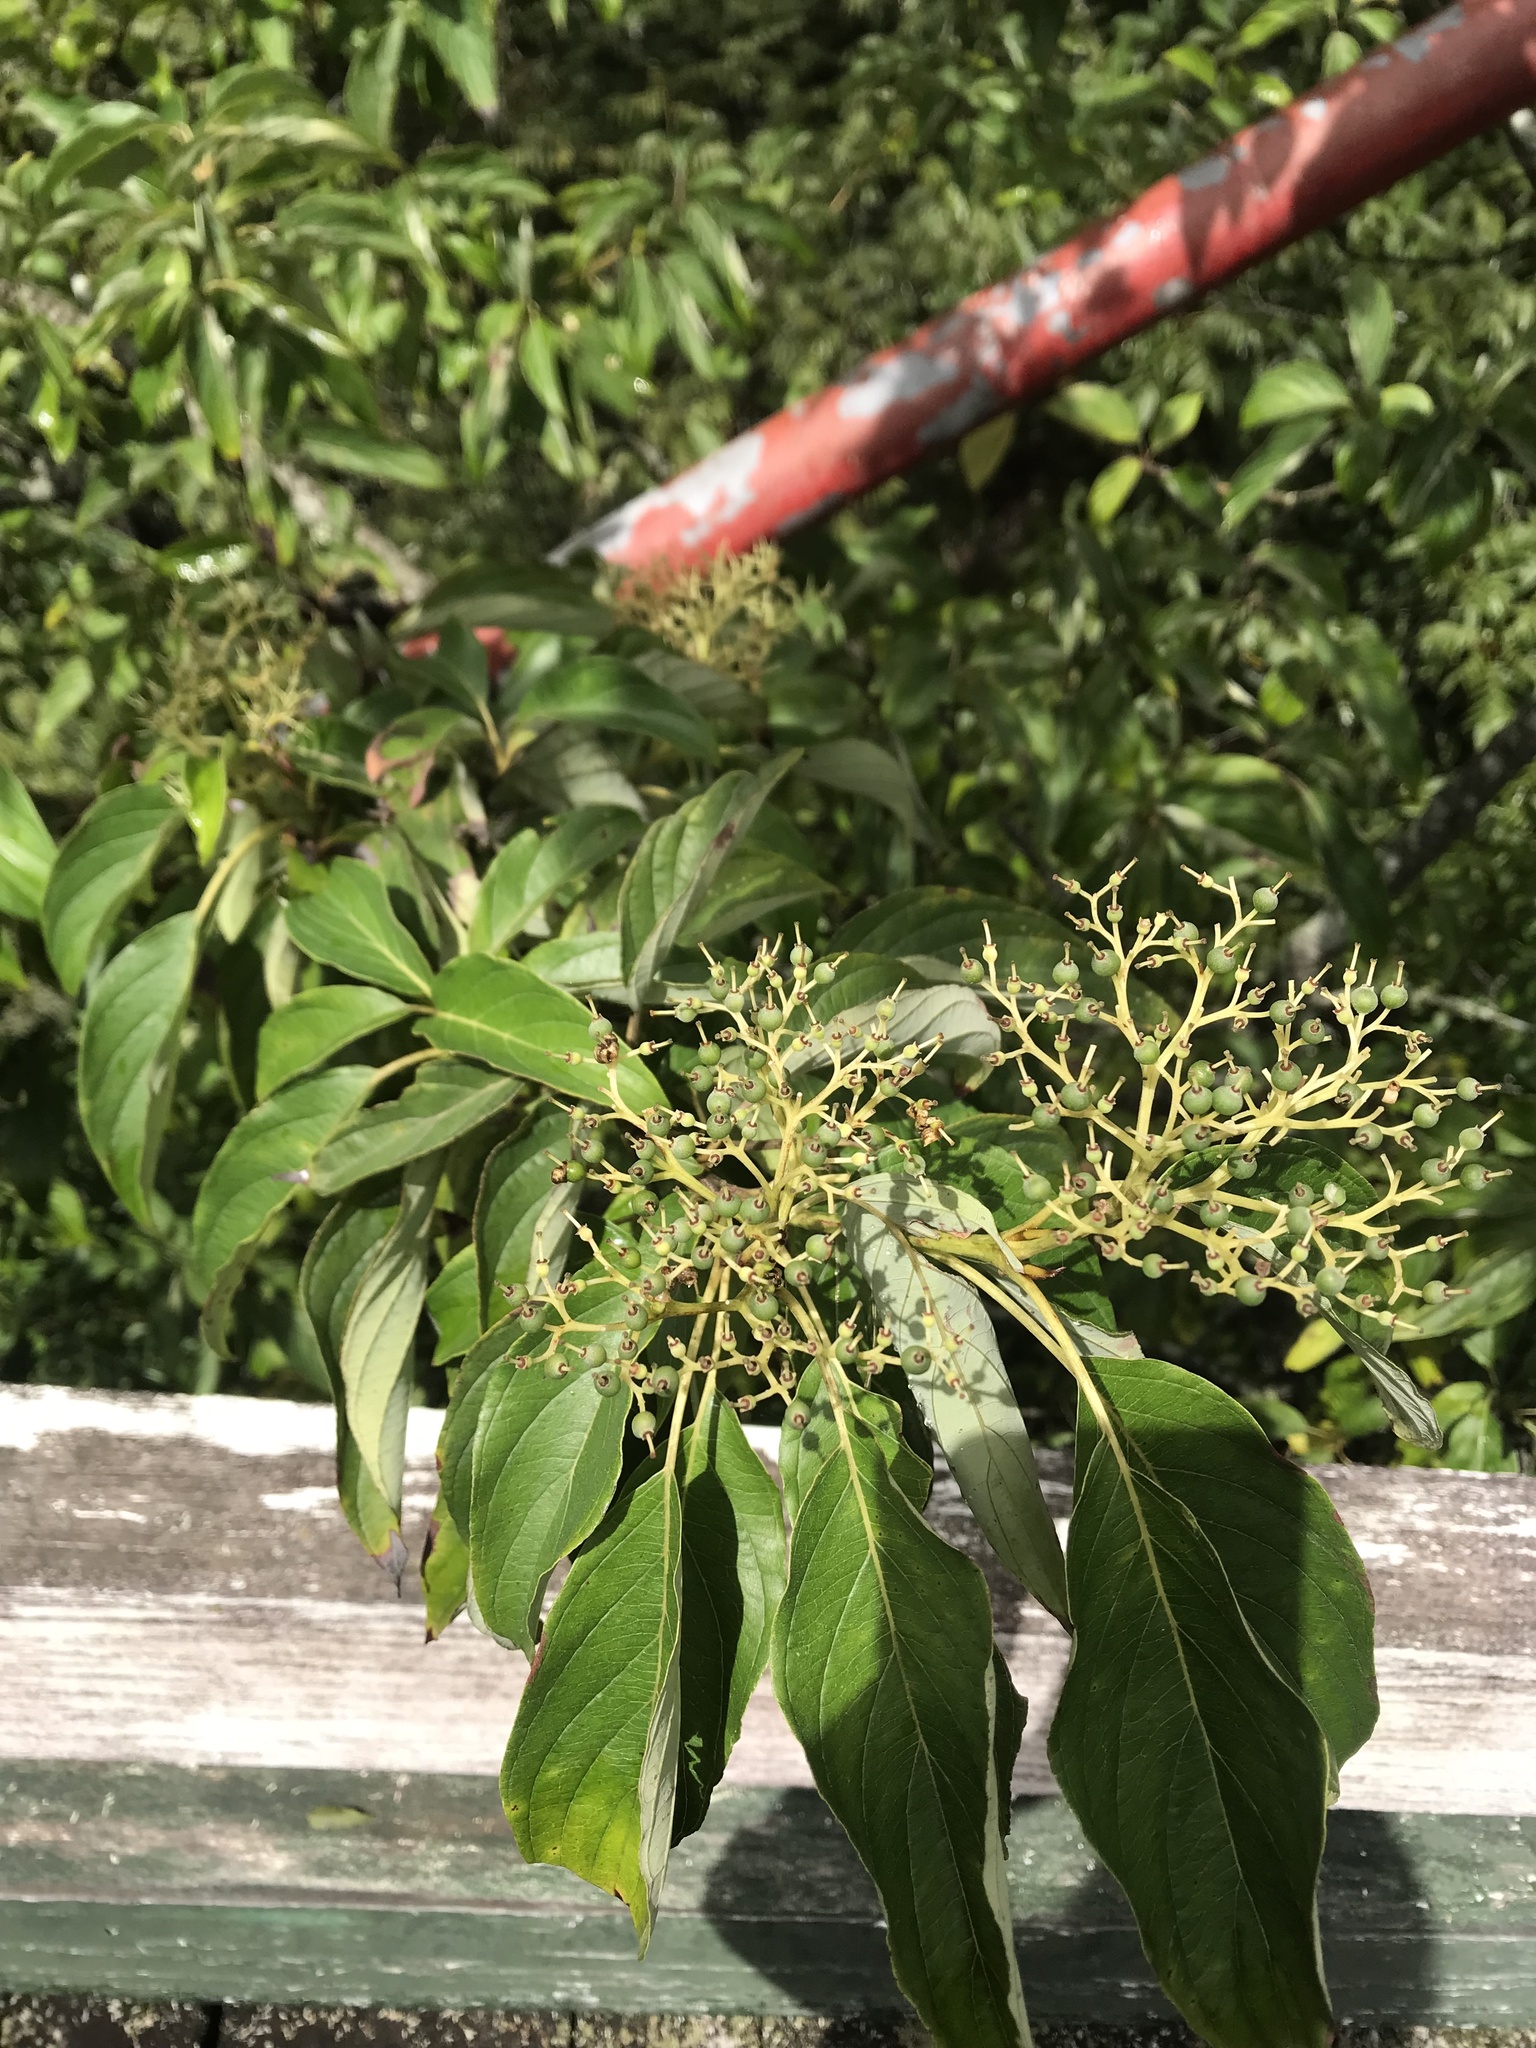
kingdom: Plantae
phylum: Tracheophyta
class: Magnoliopsida
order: Cornales
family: Cornaceae
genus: Cornus
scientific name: Cornus macrophylla
